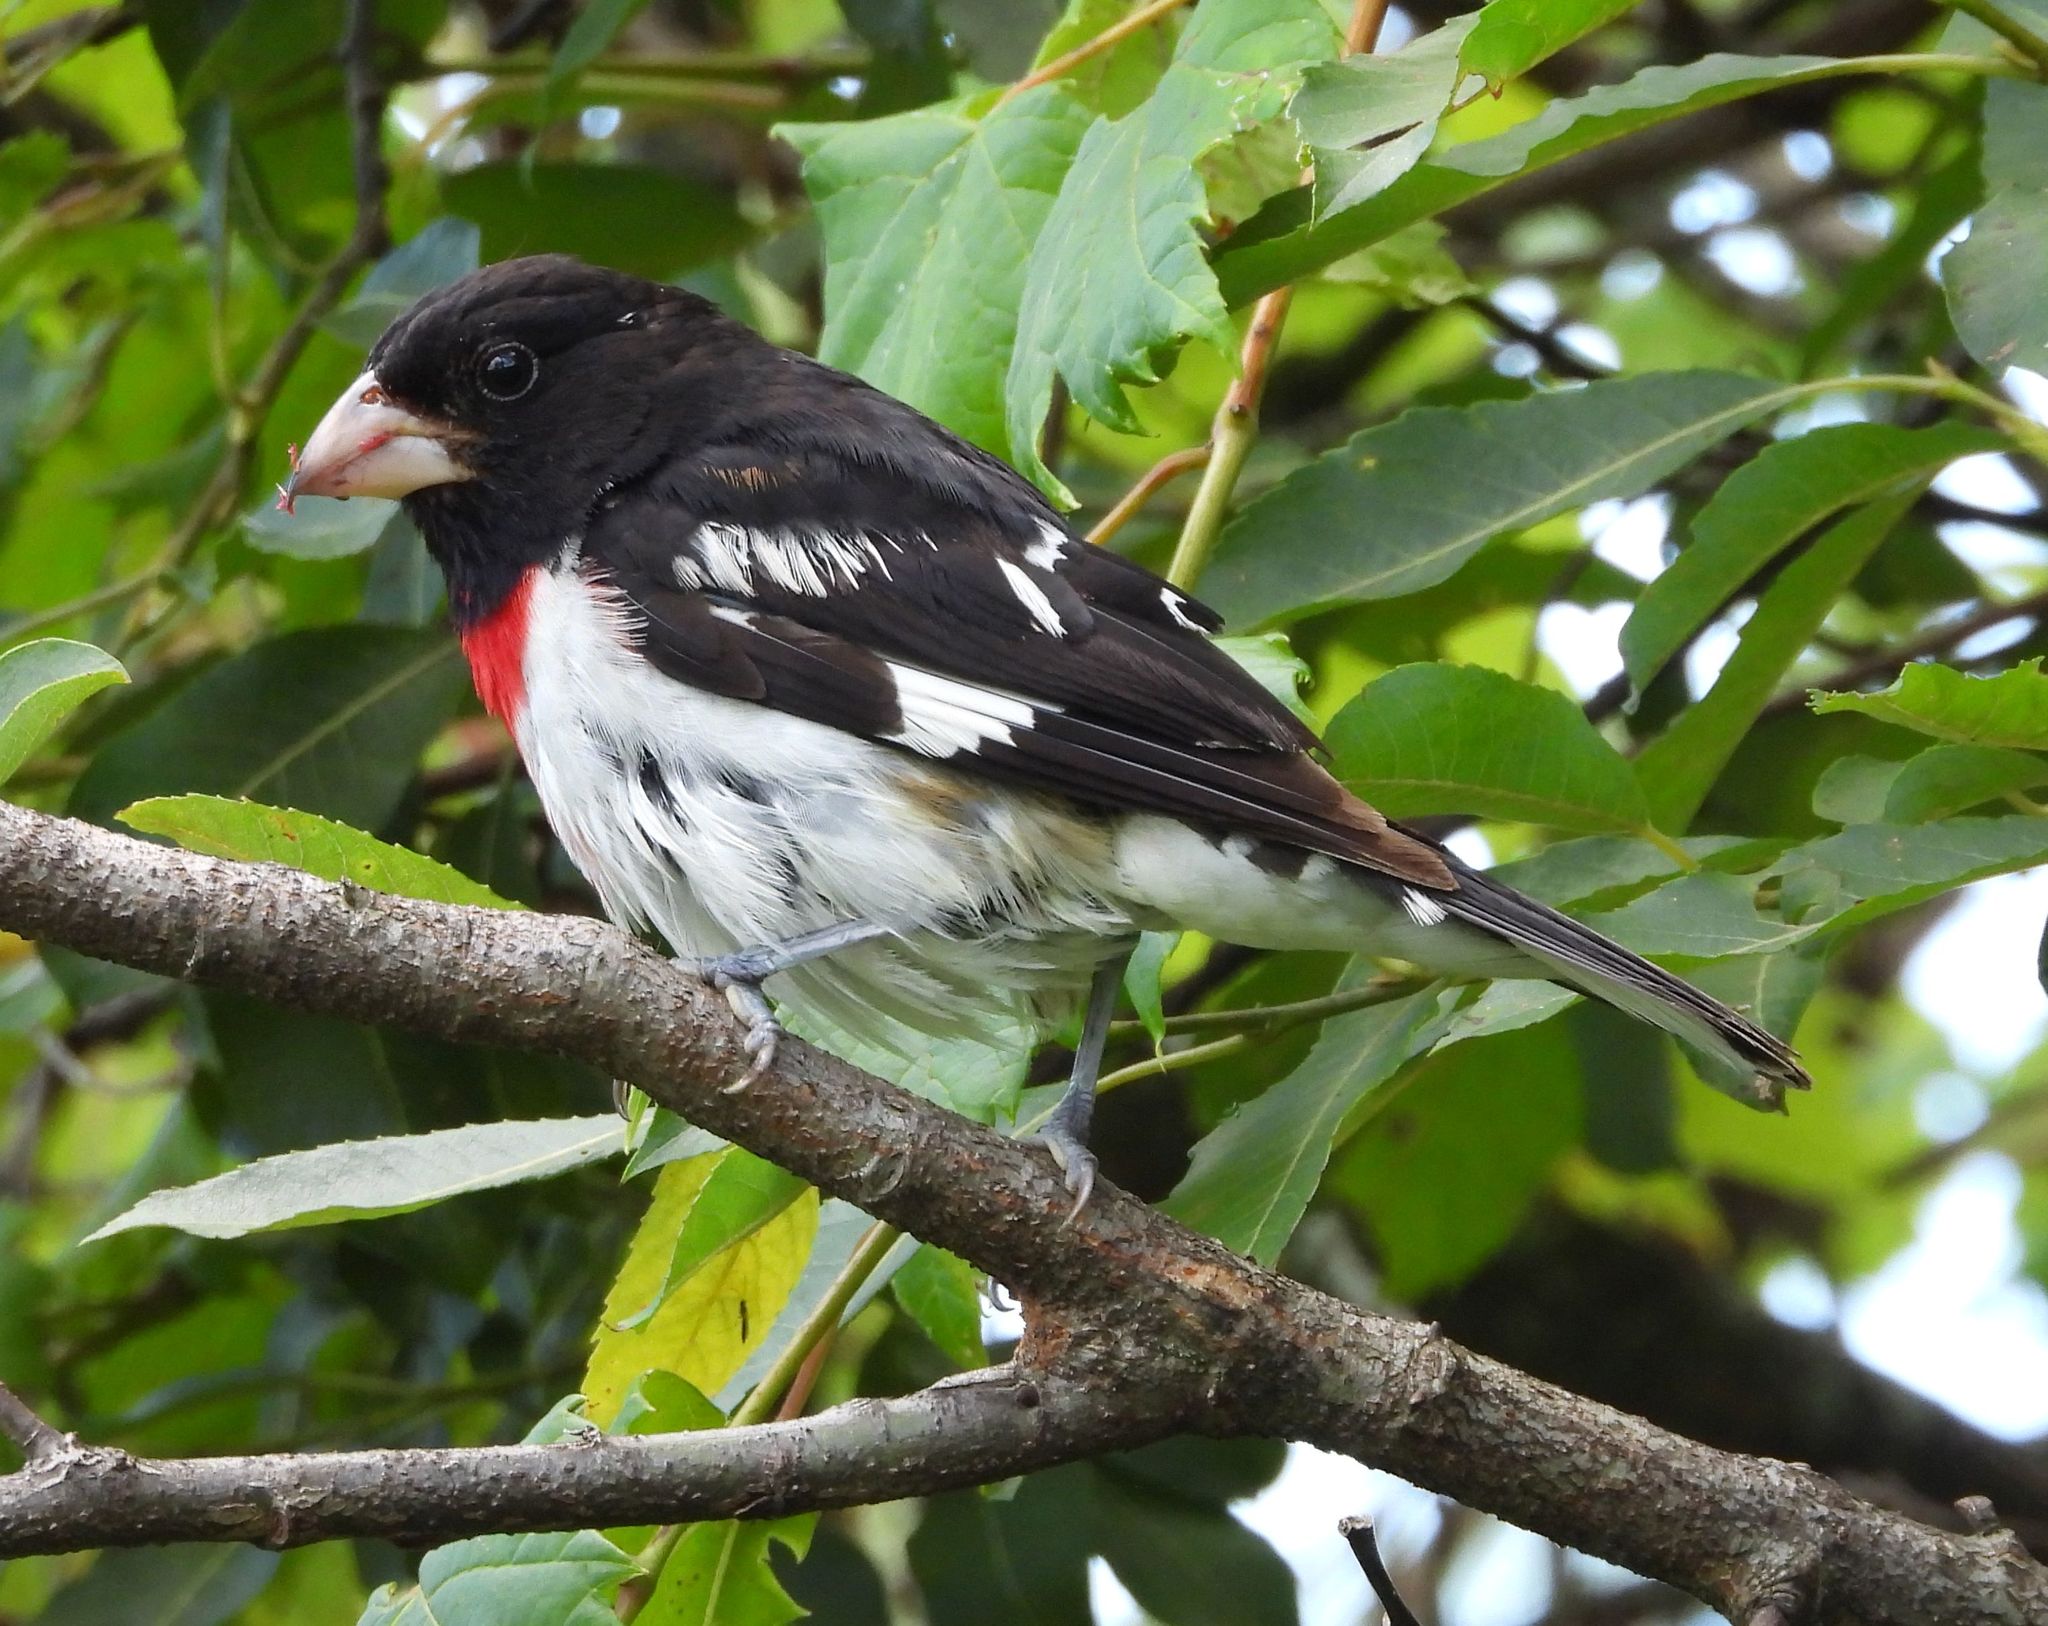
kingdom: Animalia
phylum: Chordata
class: Aves
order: Passeriformes
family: Cardinalidae
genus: Pheucticus
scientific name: Pheucticus ludovicianus
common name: Rose-breasted grosbeak
